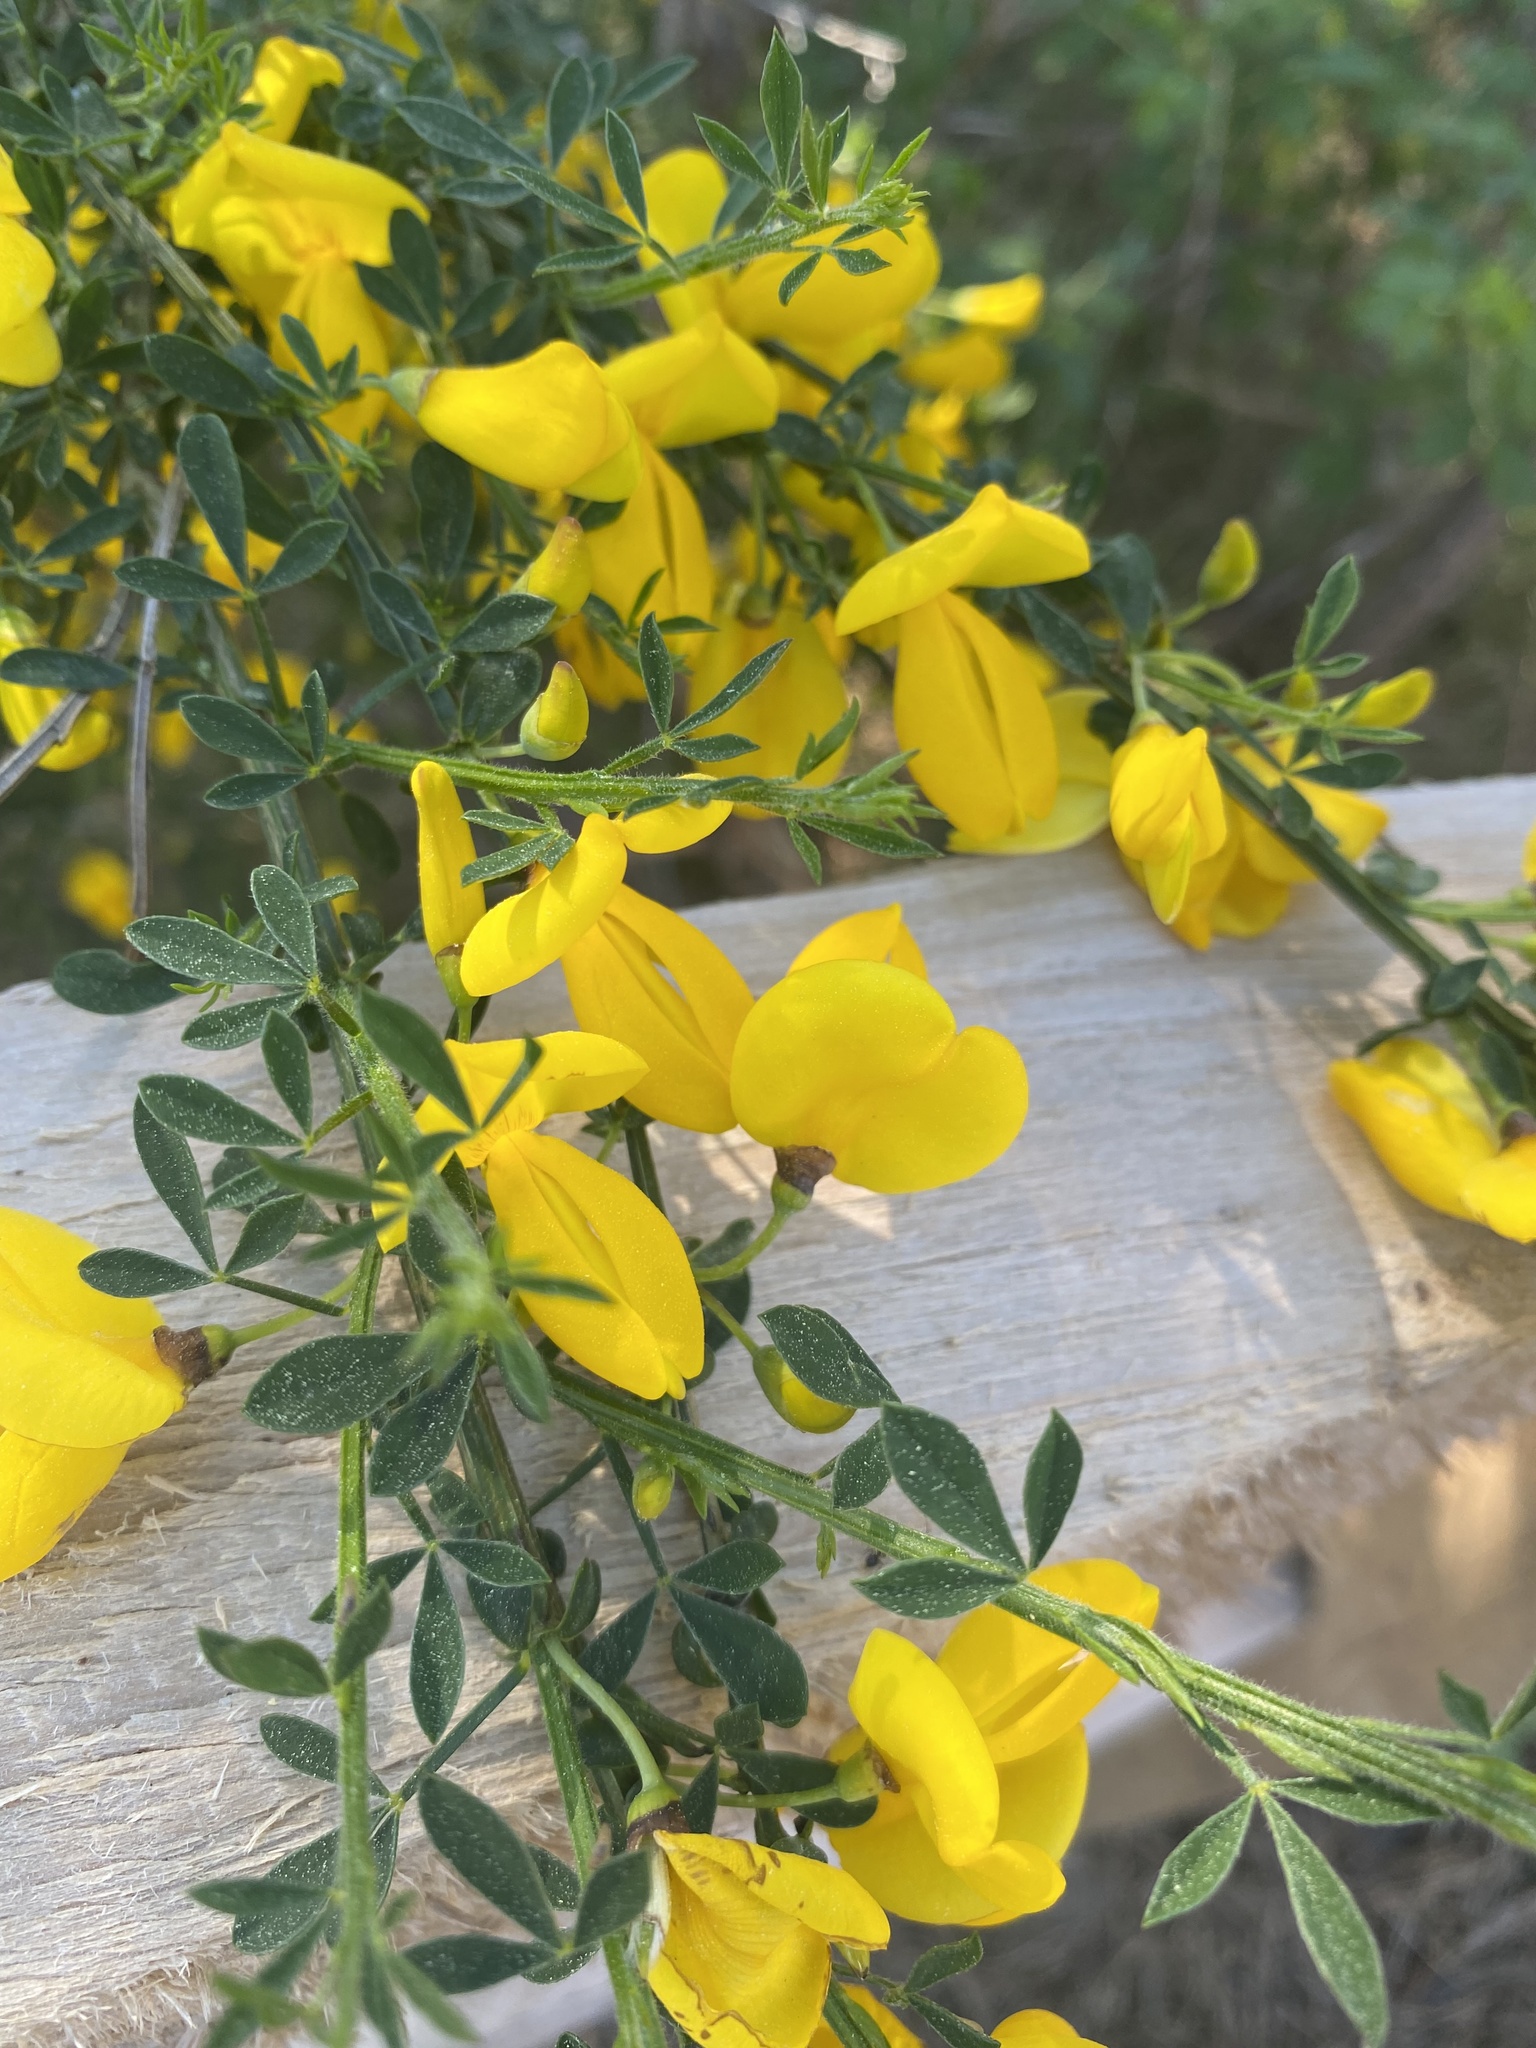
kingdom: Plantae
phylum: Tracheophyta
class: Magnoliopsida
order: Fabales
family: Fabaceae
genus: Cytisus
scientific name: Cytisus scoparius
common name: Scotch broom
